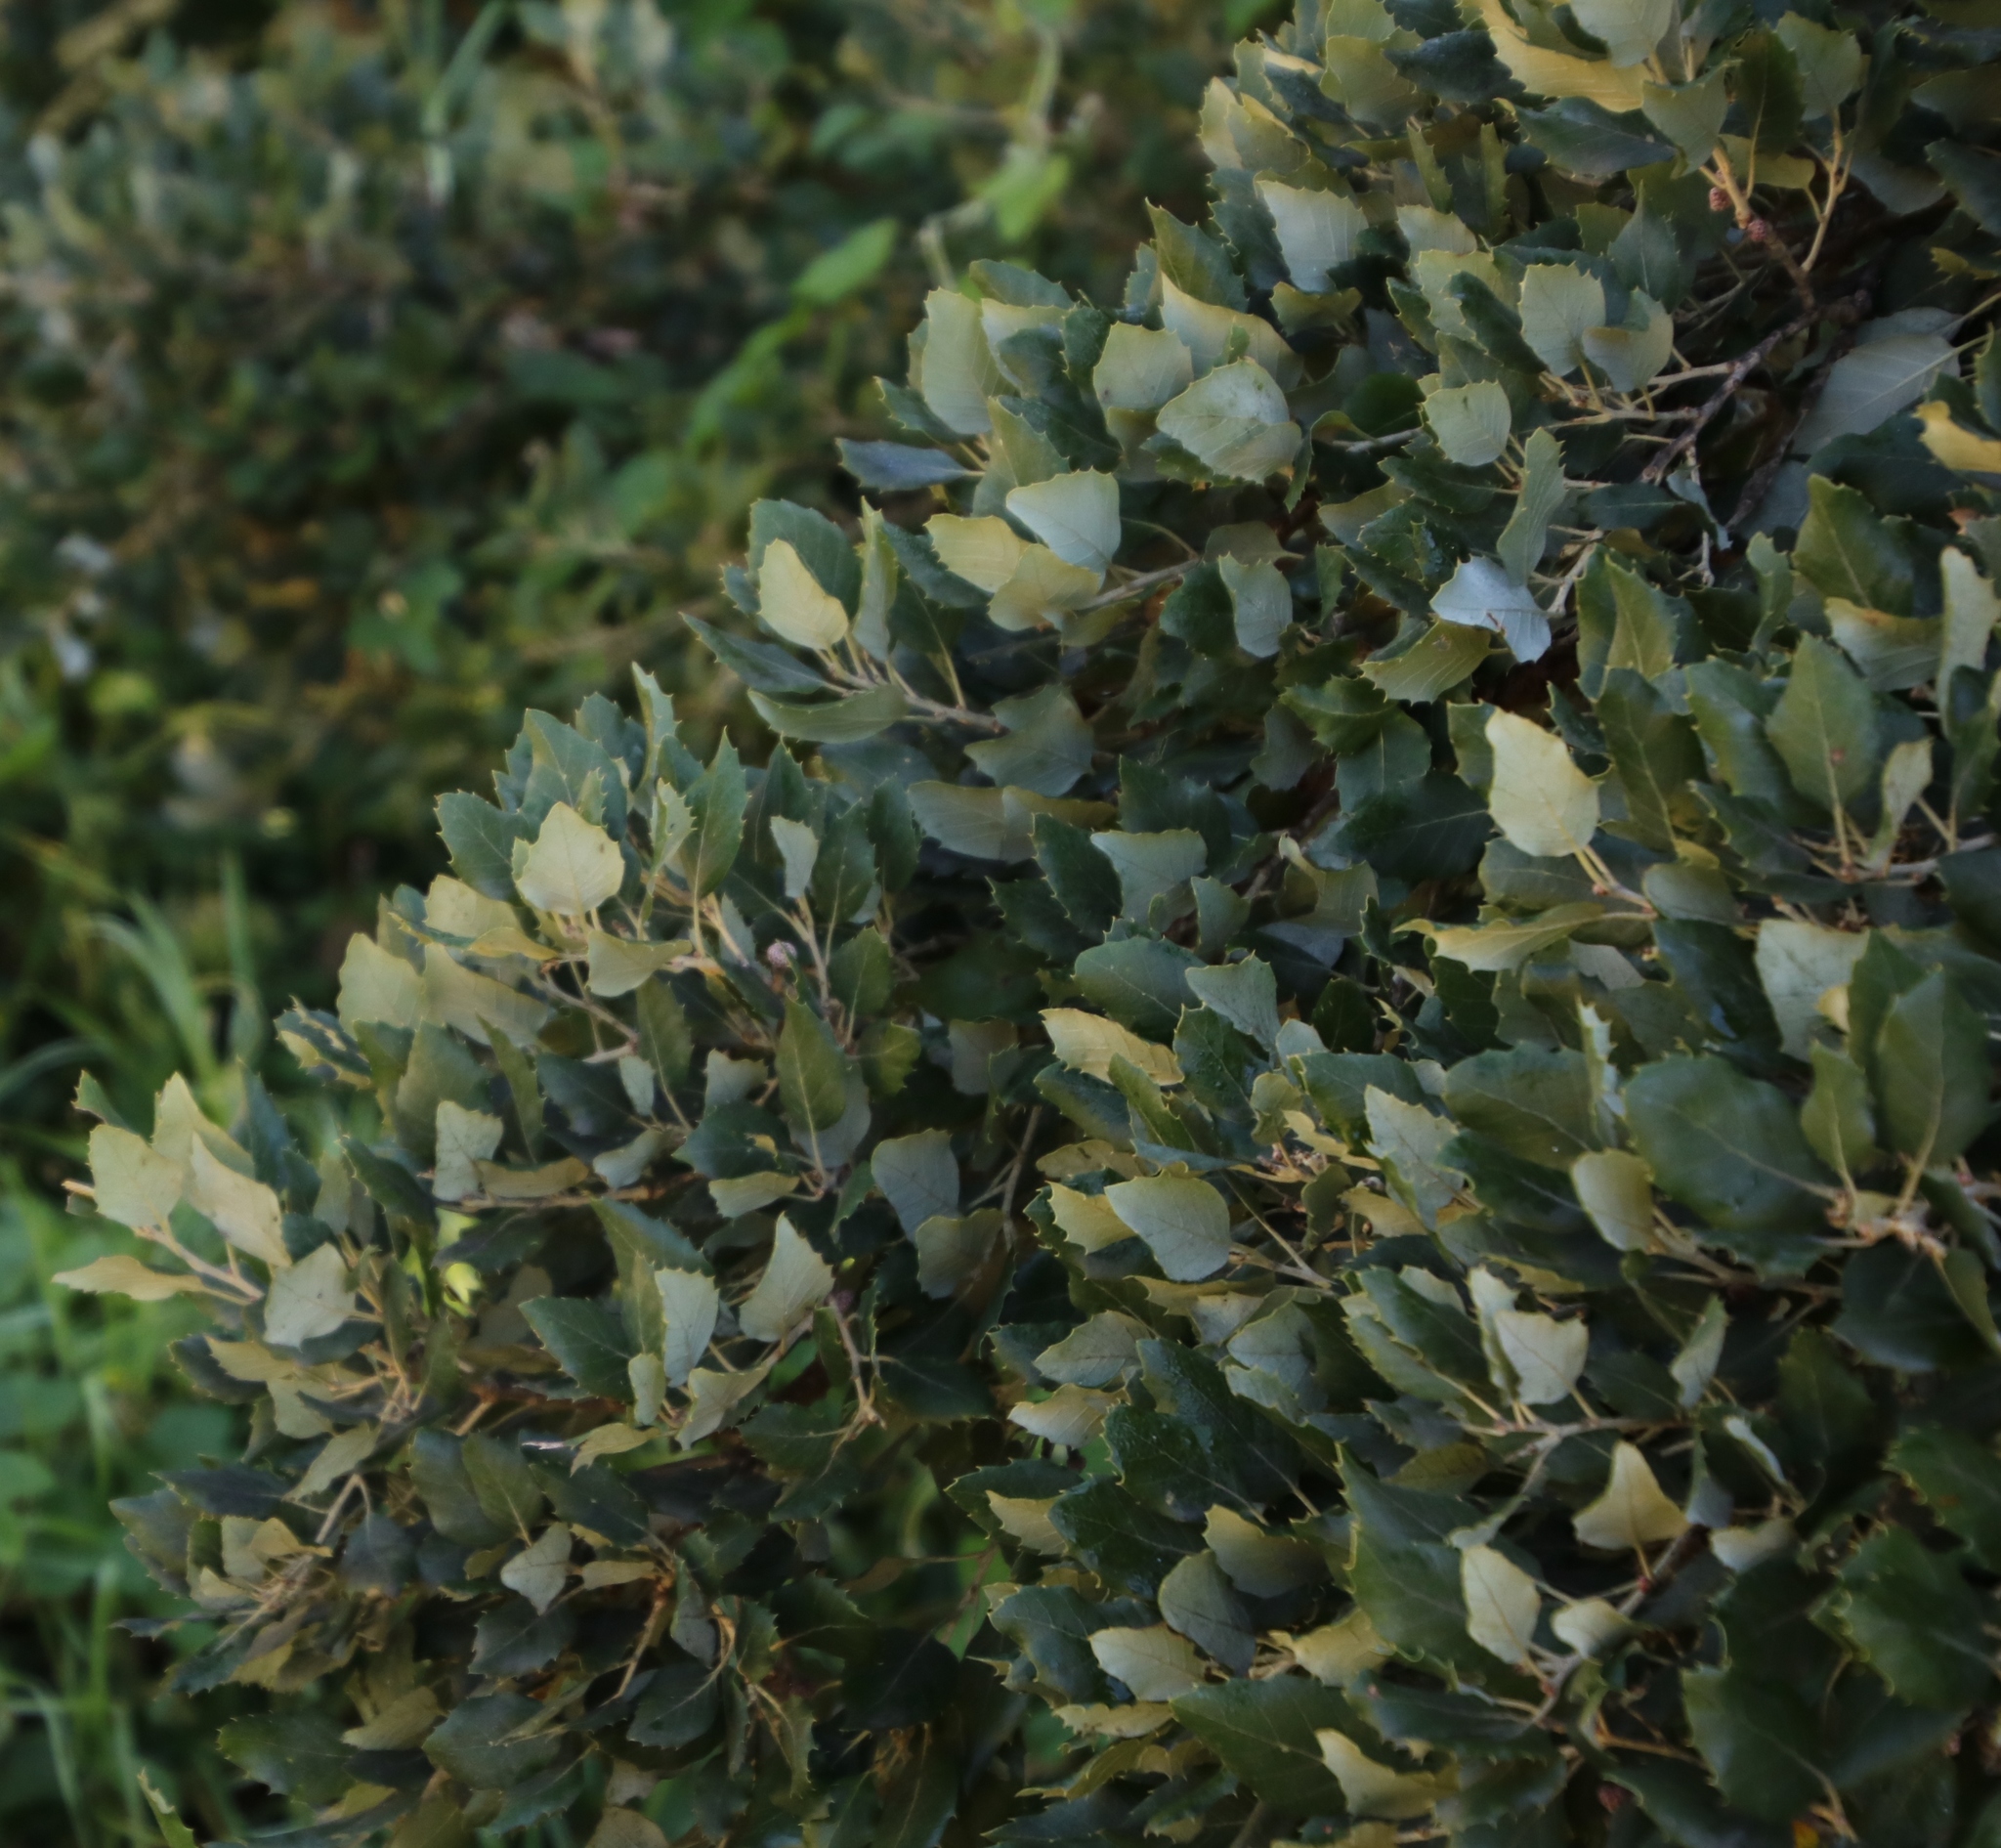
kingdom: Plantae
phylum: Tracheophyta
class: Magnoliopsida
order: Fagales
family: Fagaceae
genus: Quercus
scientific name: Quercus suber
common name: Cork oak
